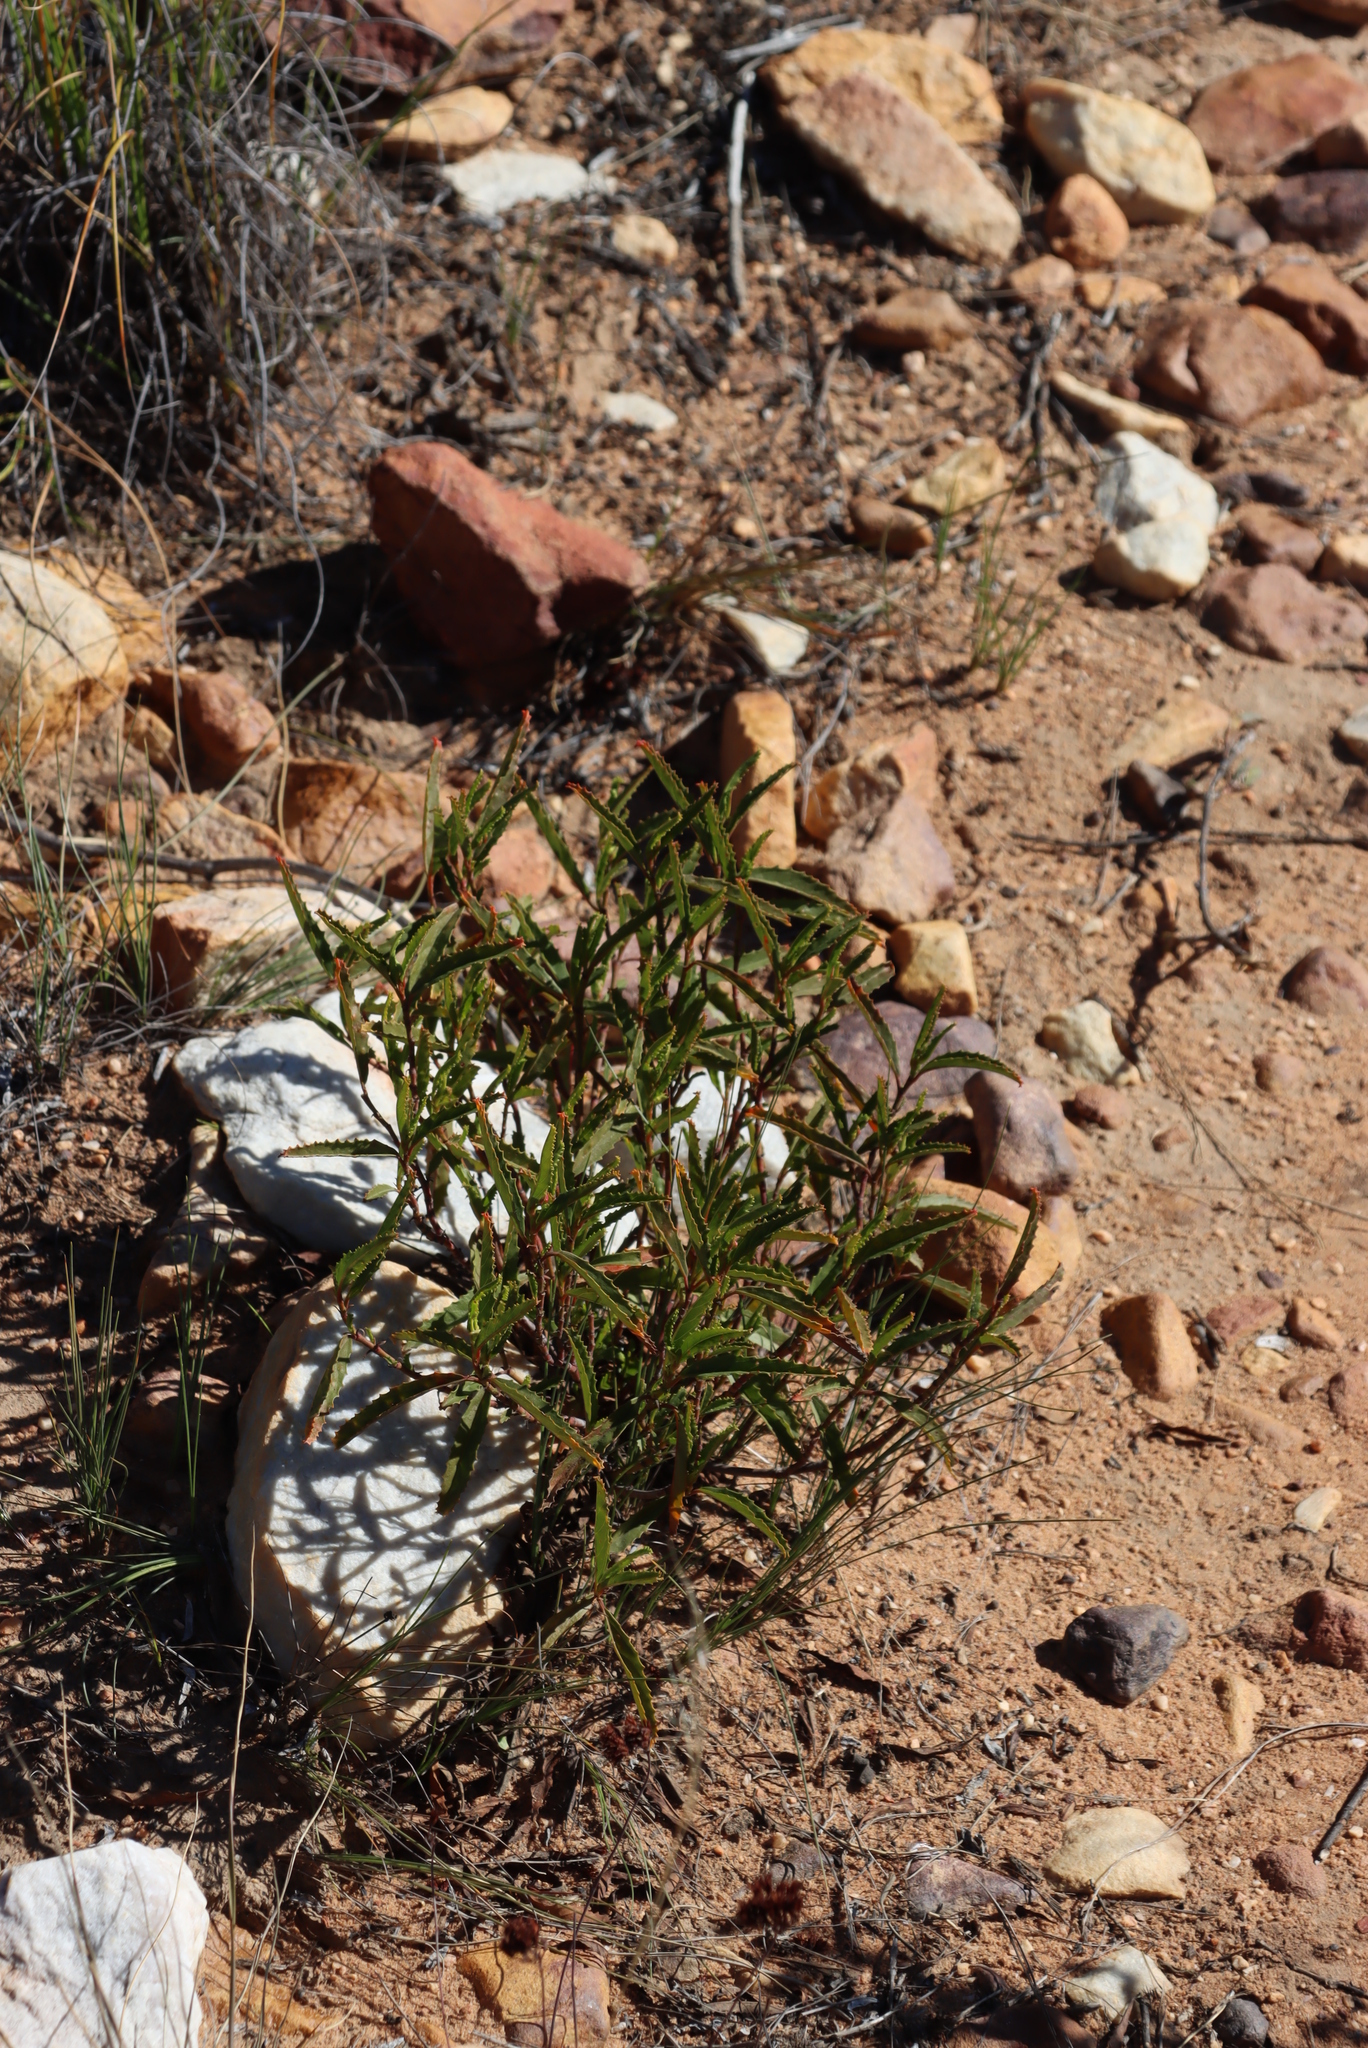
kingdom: Plantae
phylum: Tracheophyta
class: Magnoliopsida
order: Malvales
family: Malvaceae
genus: Hermannia
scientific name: Hermannia saccifera
